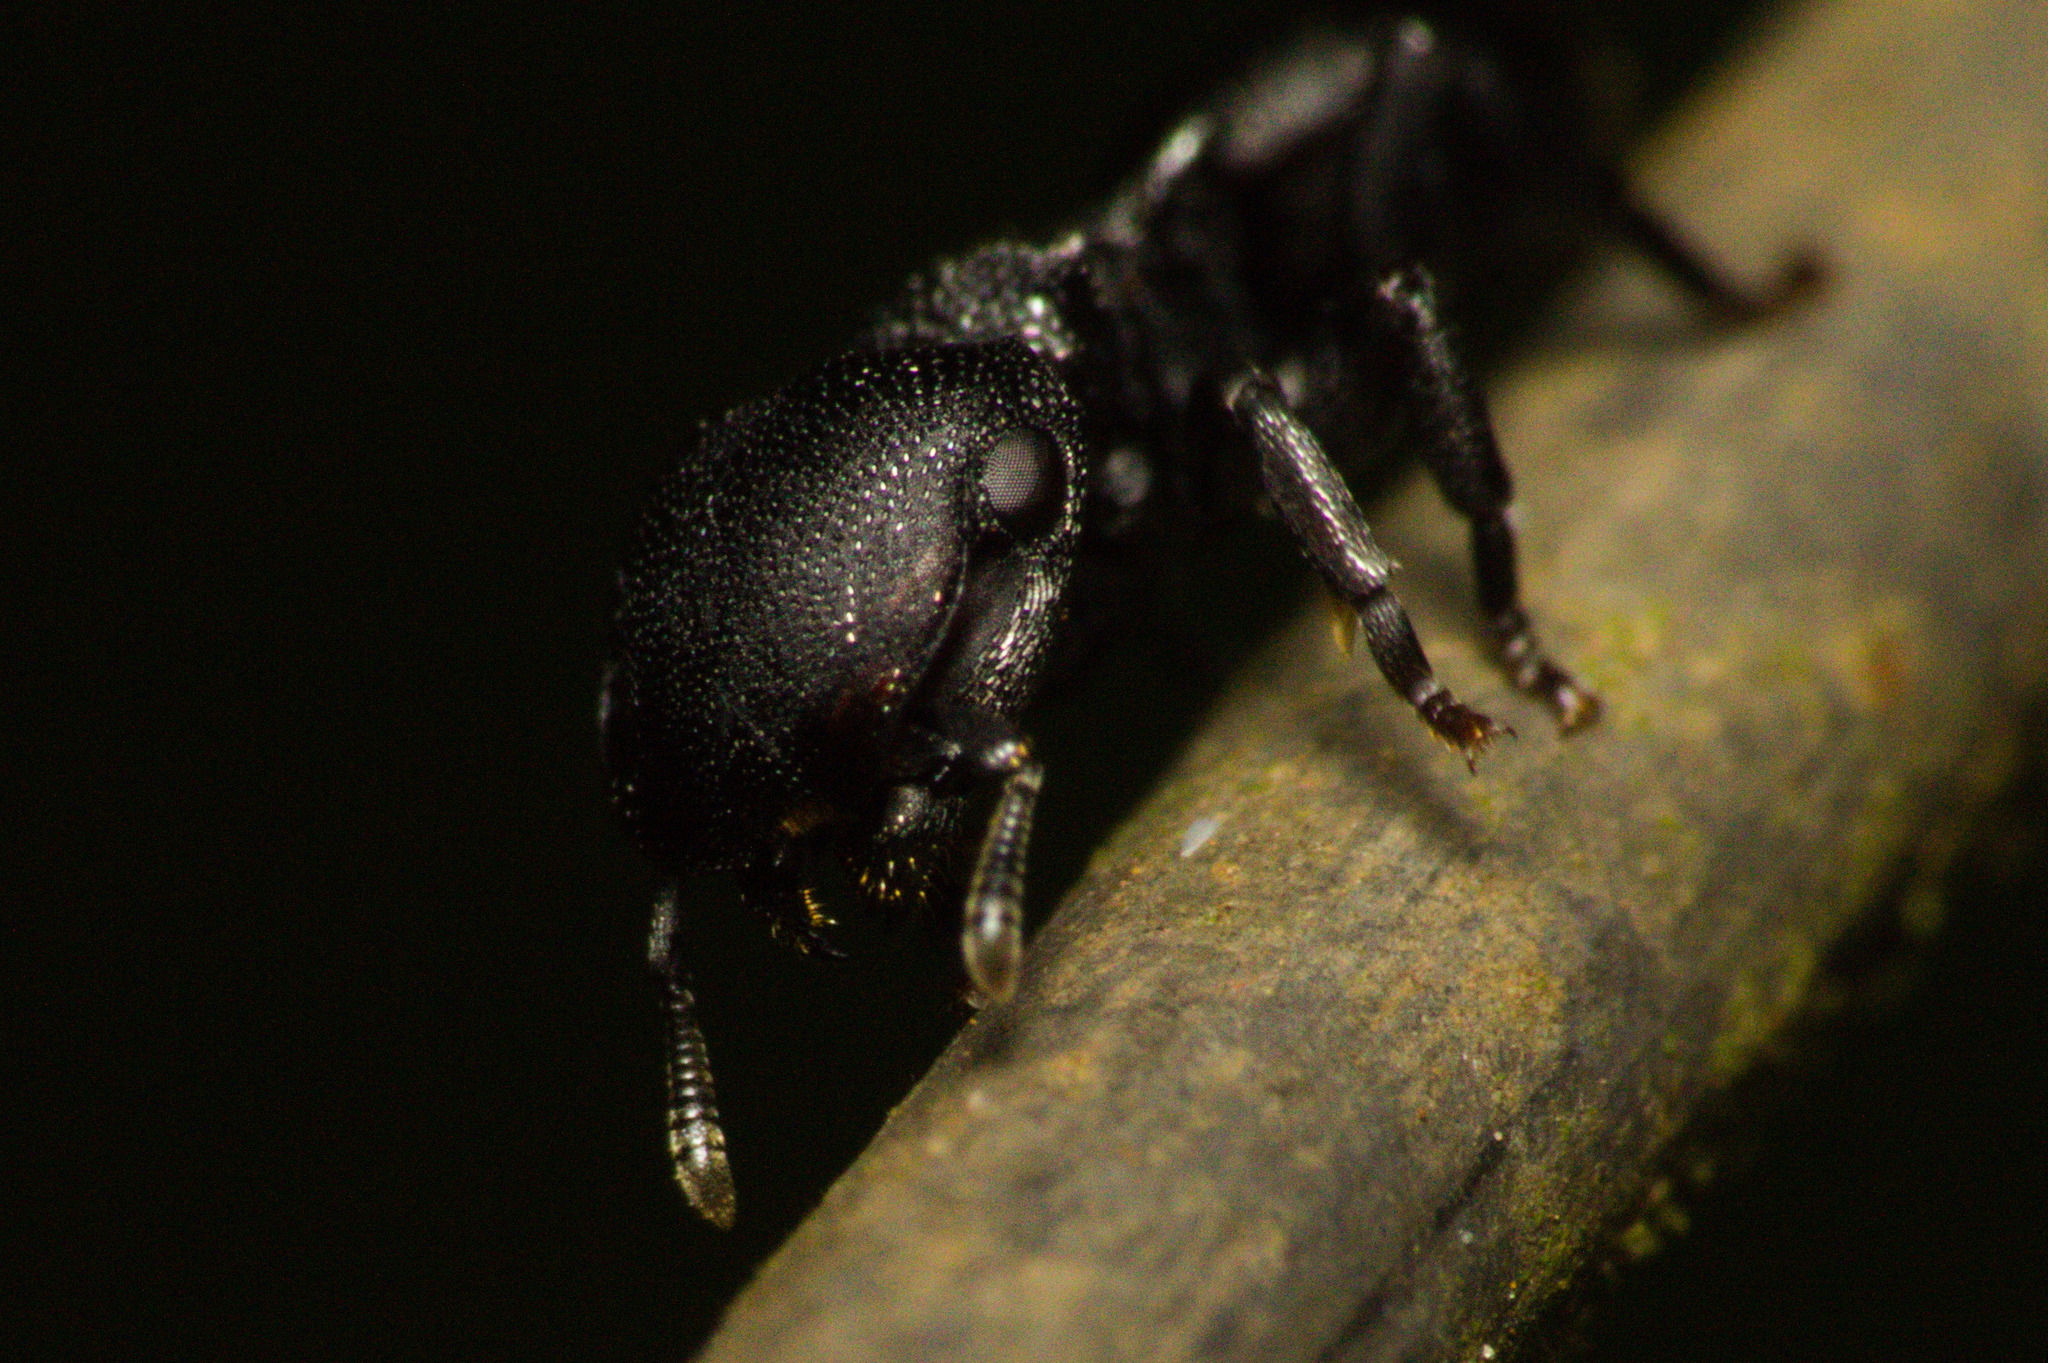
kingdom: Animalia
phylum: Arthropoda
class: Insecta
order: Hymenoptera
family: Formicidae
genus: Cephalotes
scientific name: Cephalotes pusillus
